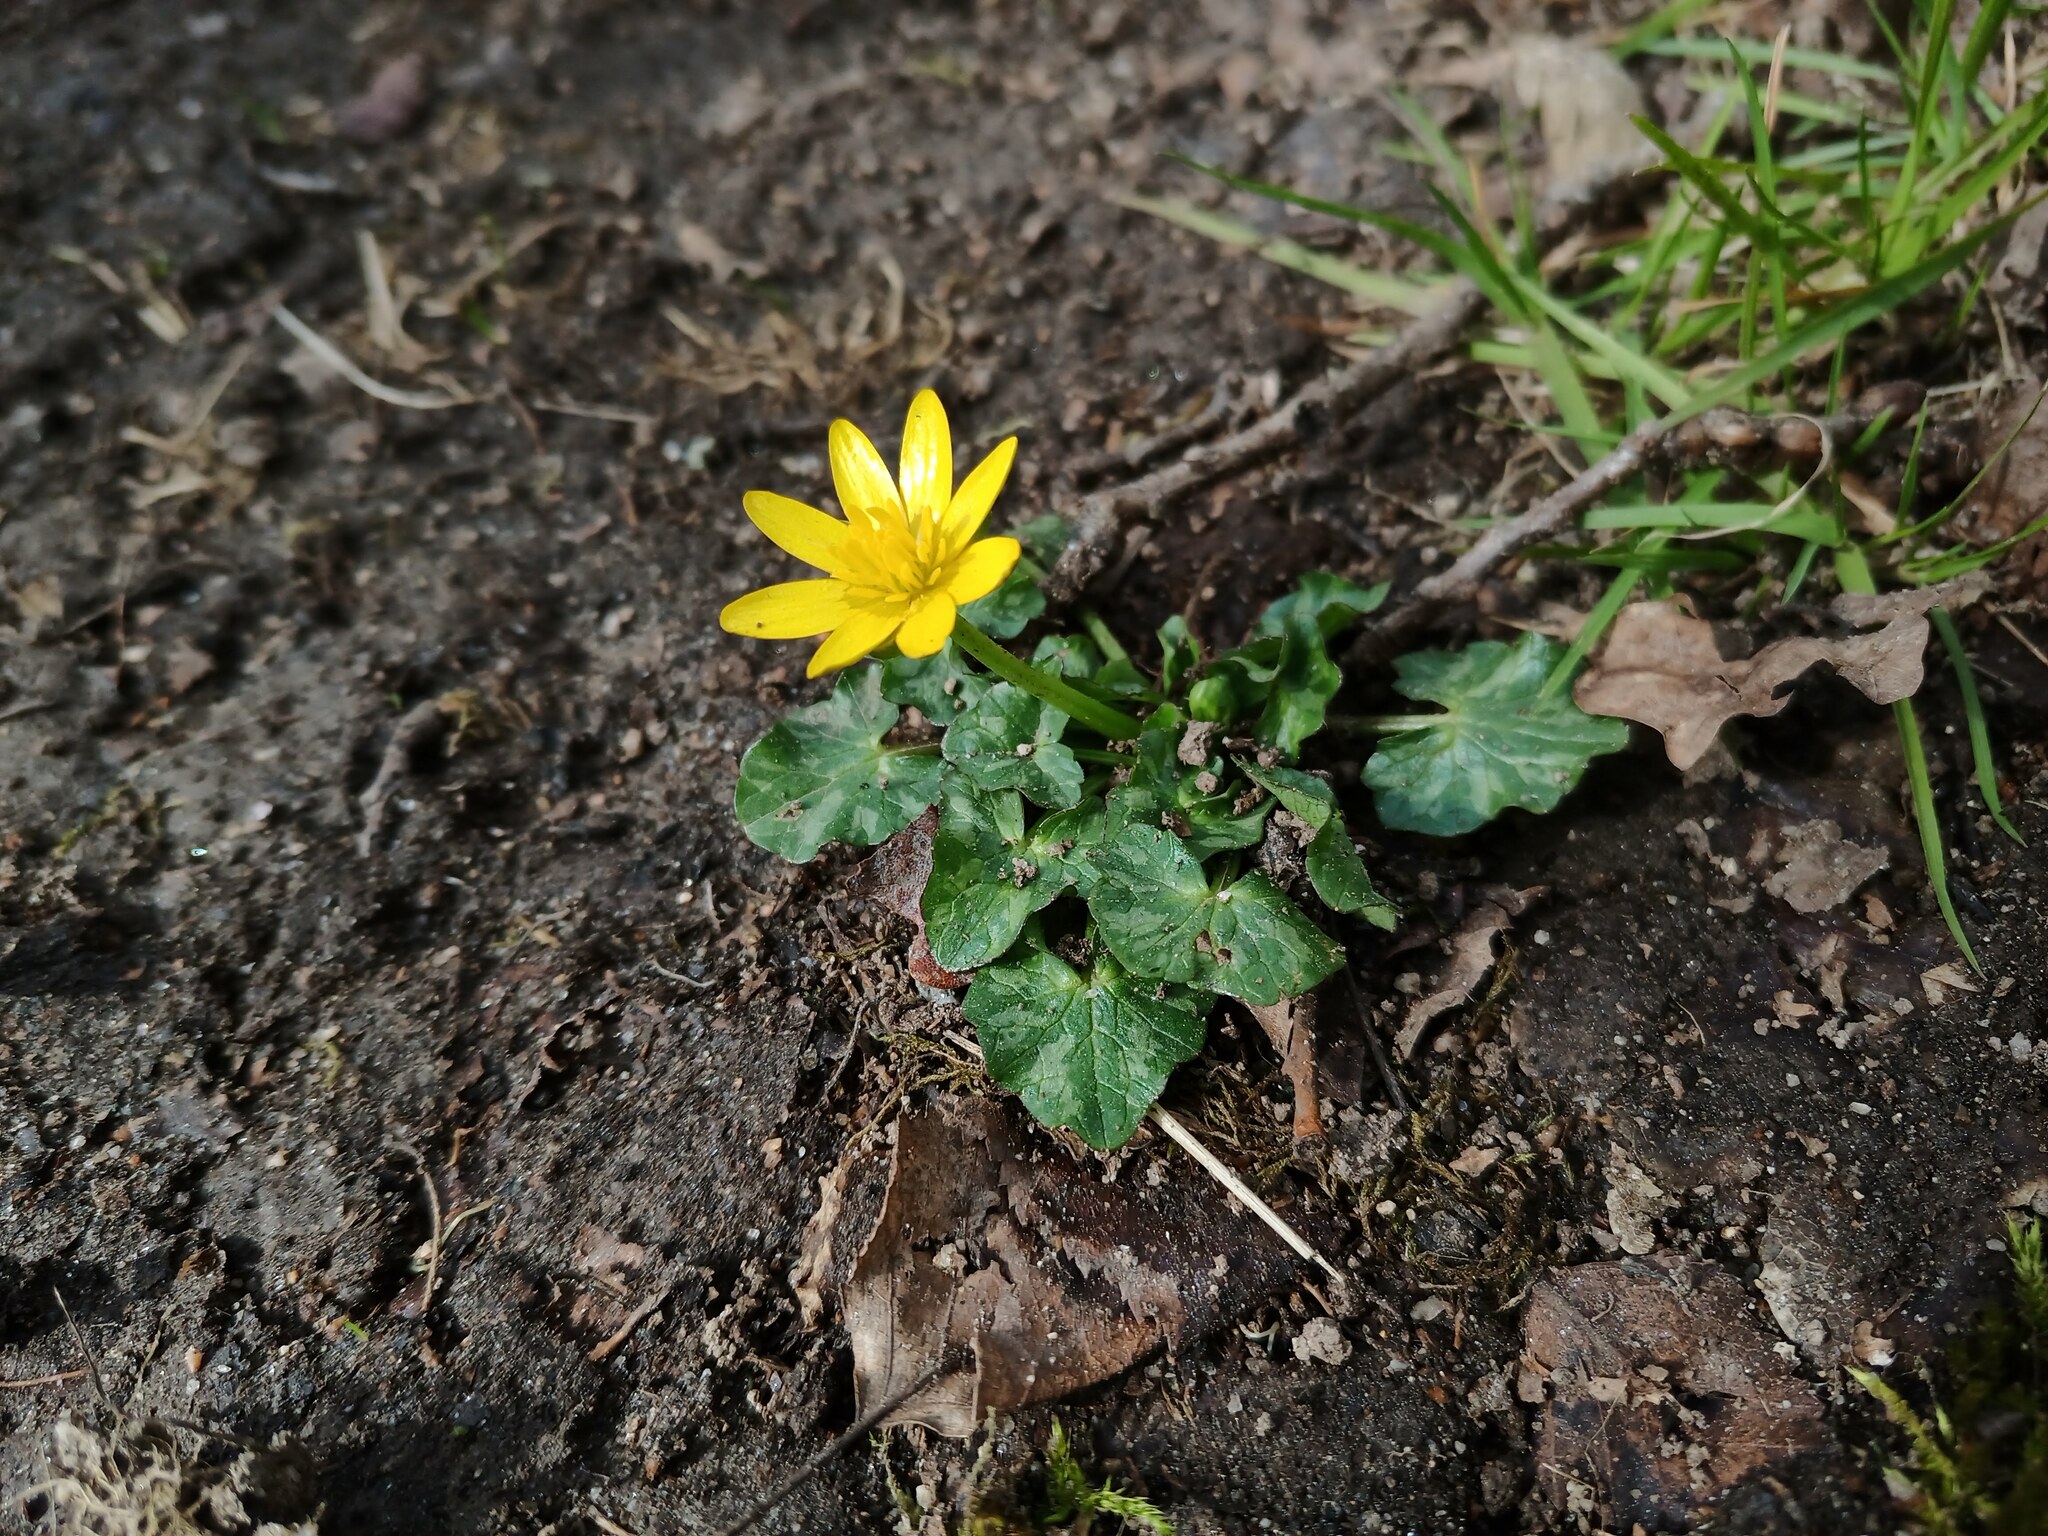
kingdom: Plantae
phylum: Tracheophyta
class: Magnoliopsida
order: Ranunculales
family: Ranunculaceae
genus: Ficaria
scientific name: Ficaria verna
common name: Lesser celandine
